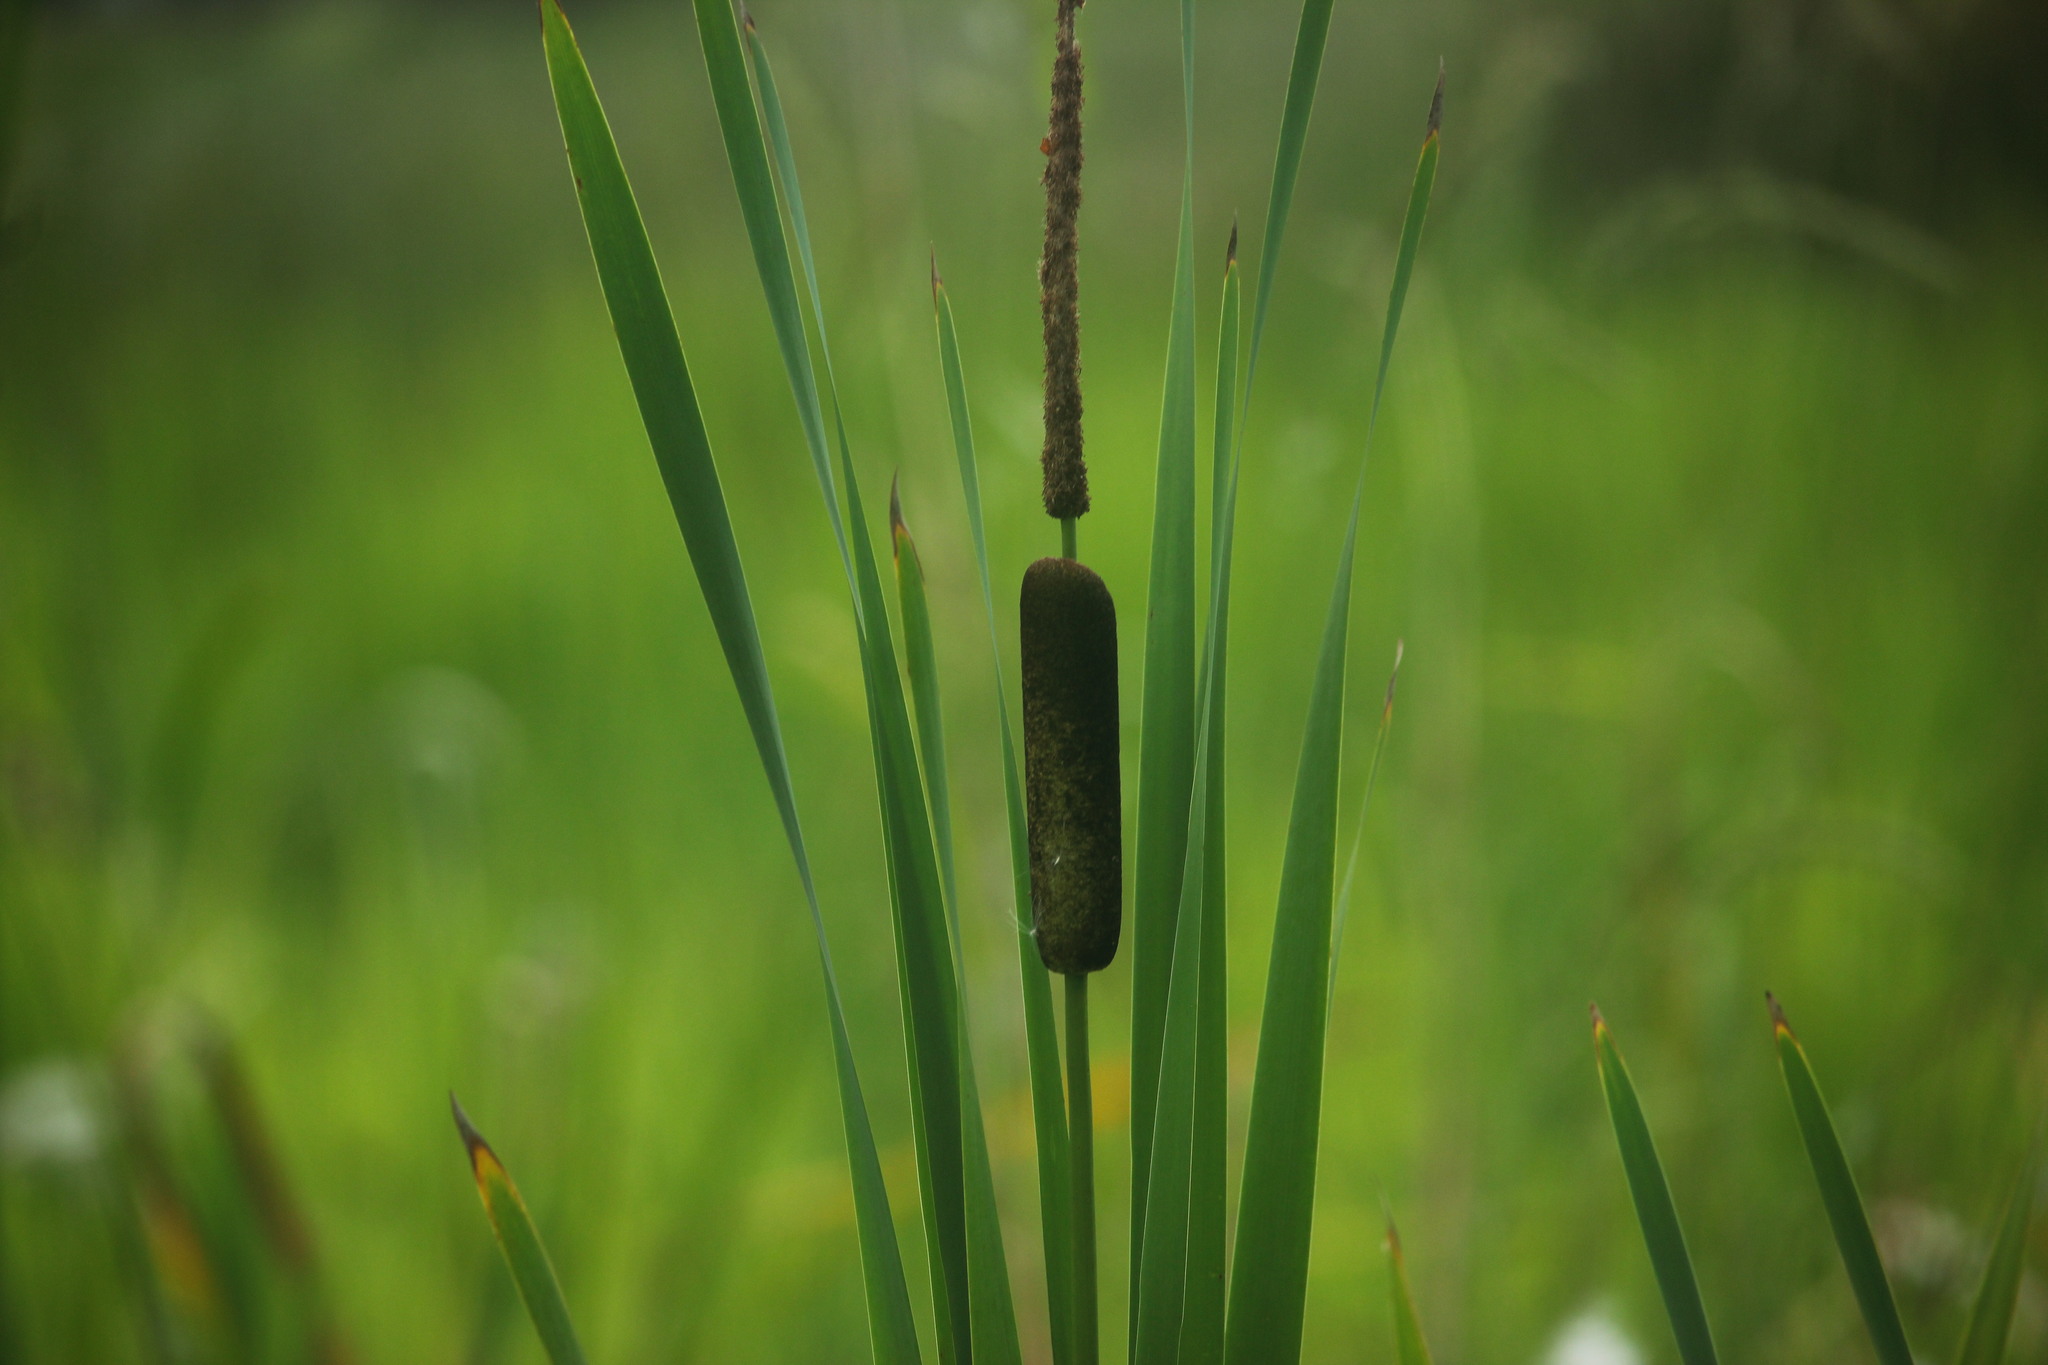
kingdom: Plantae
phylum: Tracheophyta
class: Liliopsida
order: Poales
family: Typhaceae
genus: Typha
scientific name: Typha angustifolia
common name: Lesser bulrush
